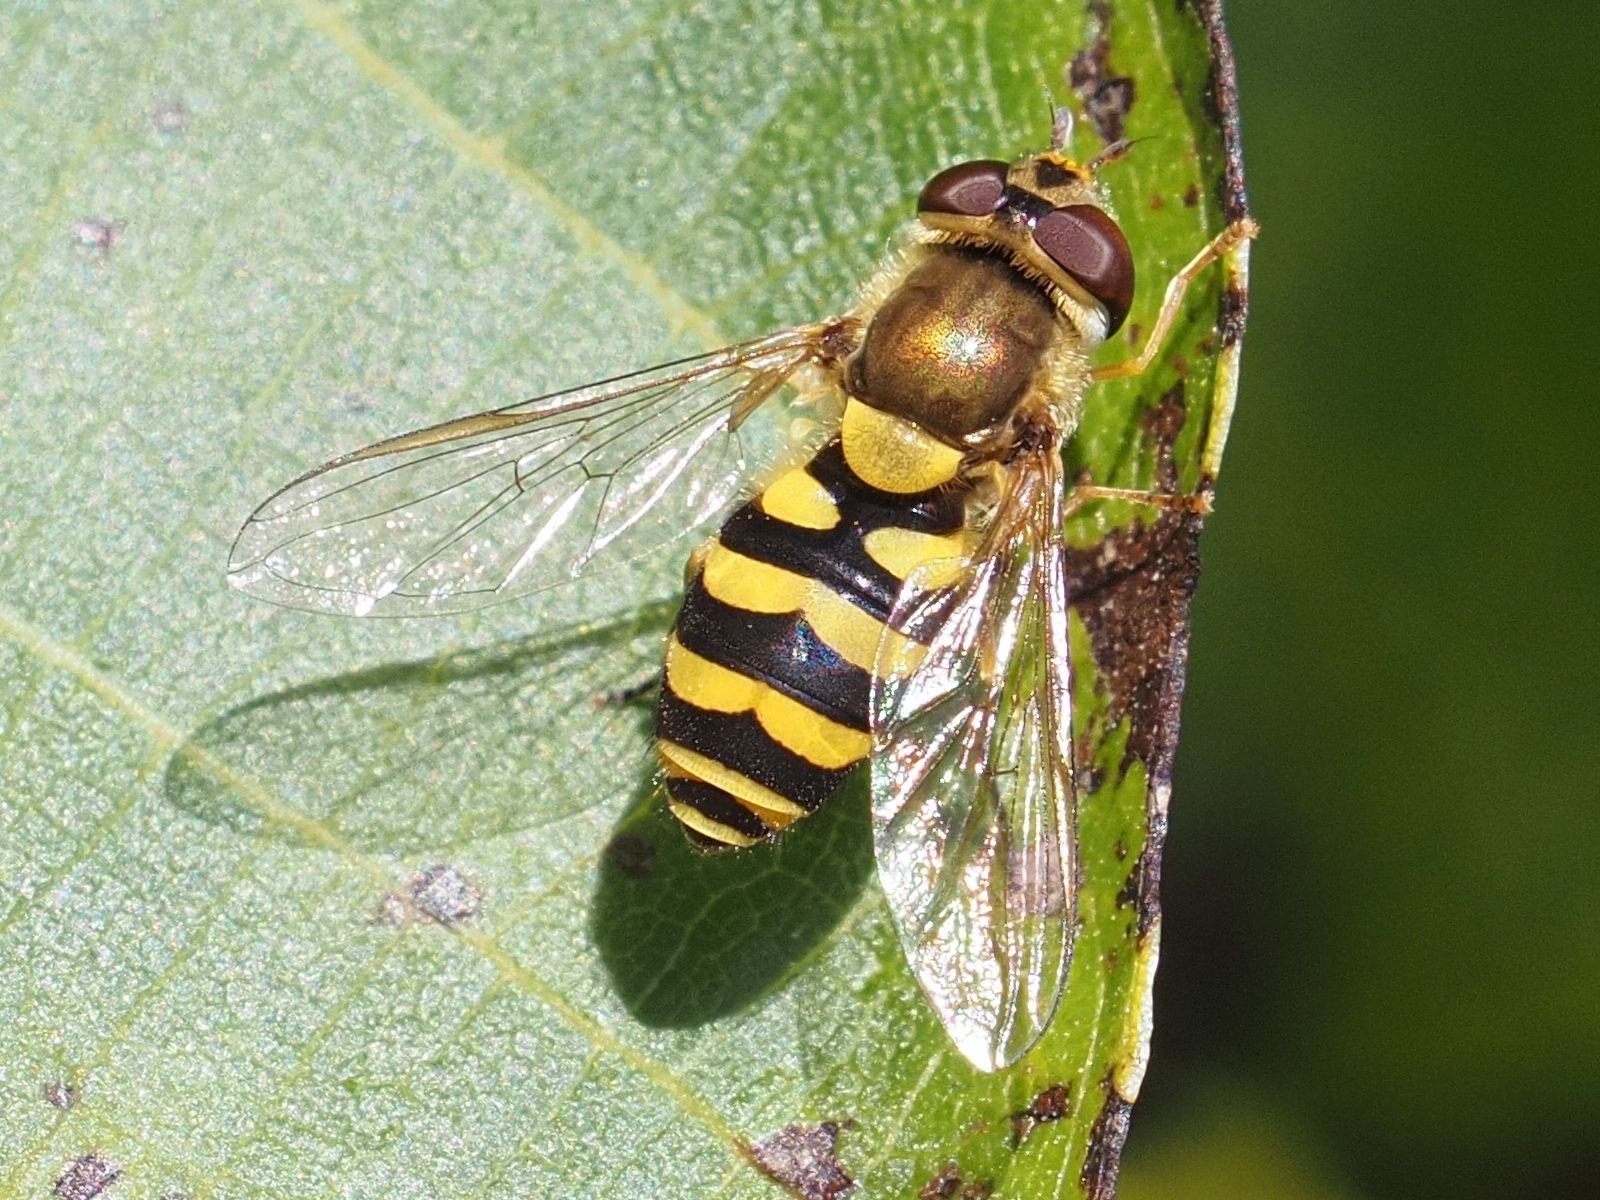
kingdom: Animalia
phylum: Arthropoda
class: Insecta
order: Diptera
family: Syrphidae
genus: Syrphus
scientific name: Syrphus
